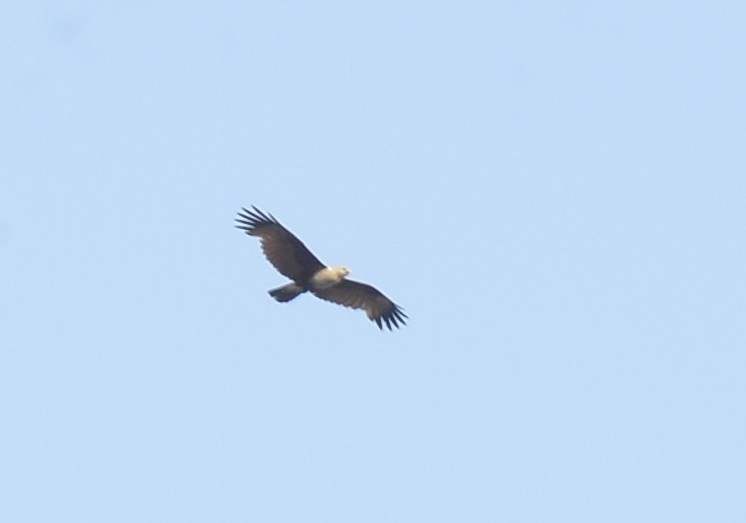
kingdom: Animalia
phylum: Chordata
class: Aves
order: Accipitriformes
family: Accipitridae
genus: Haliastur
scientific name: Haliastur indus
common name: Brahminy kite
